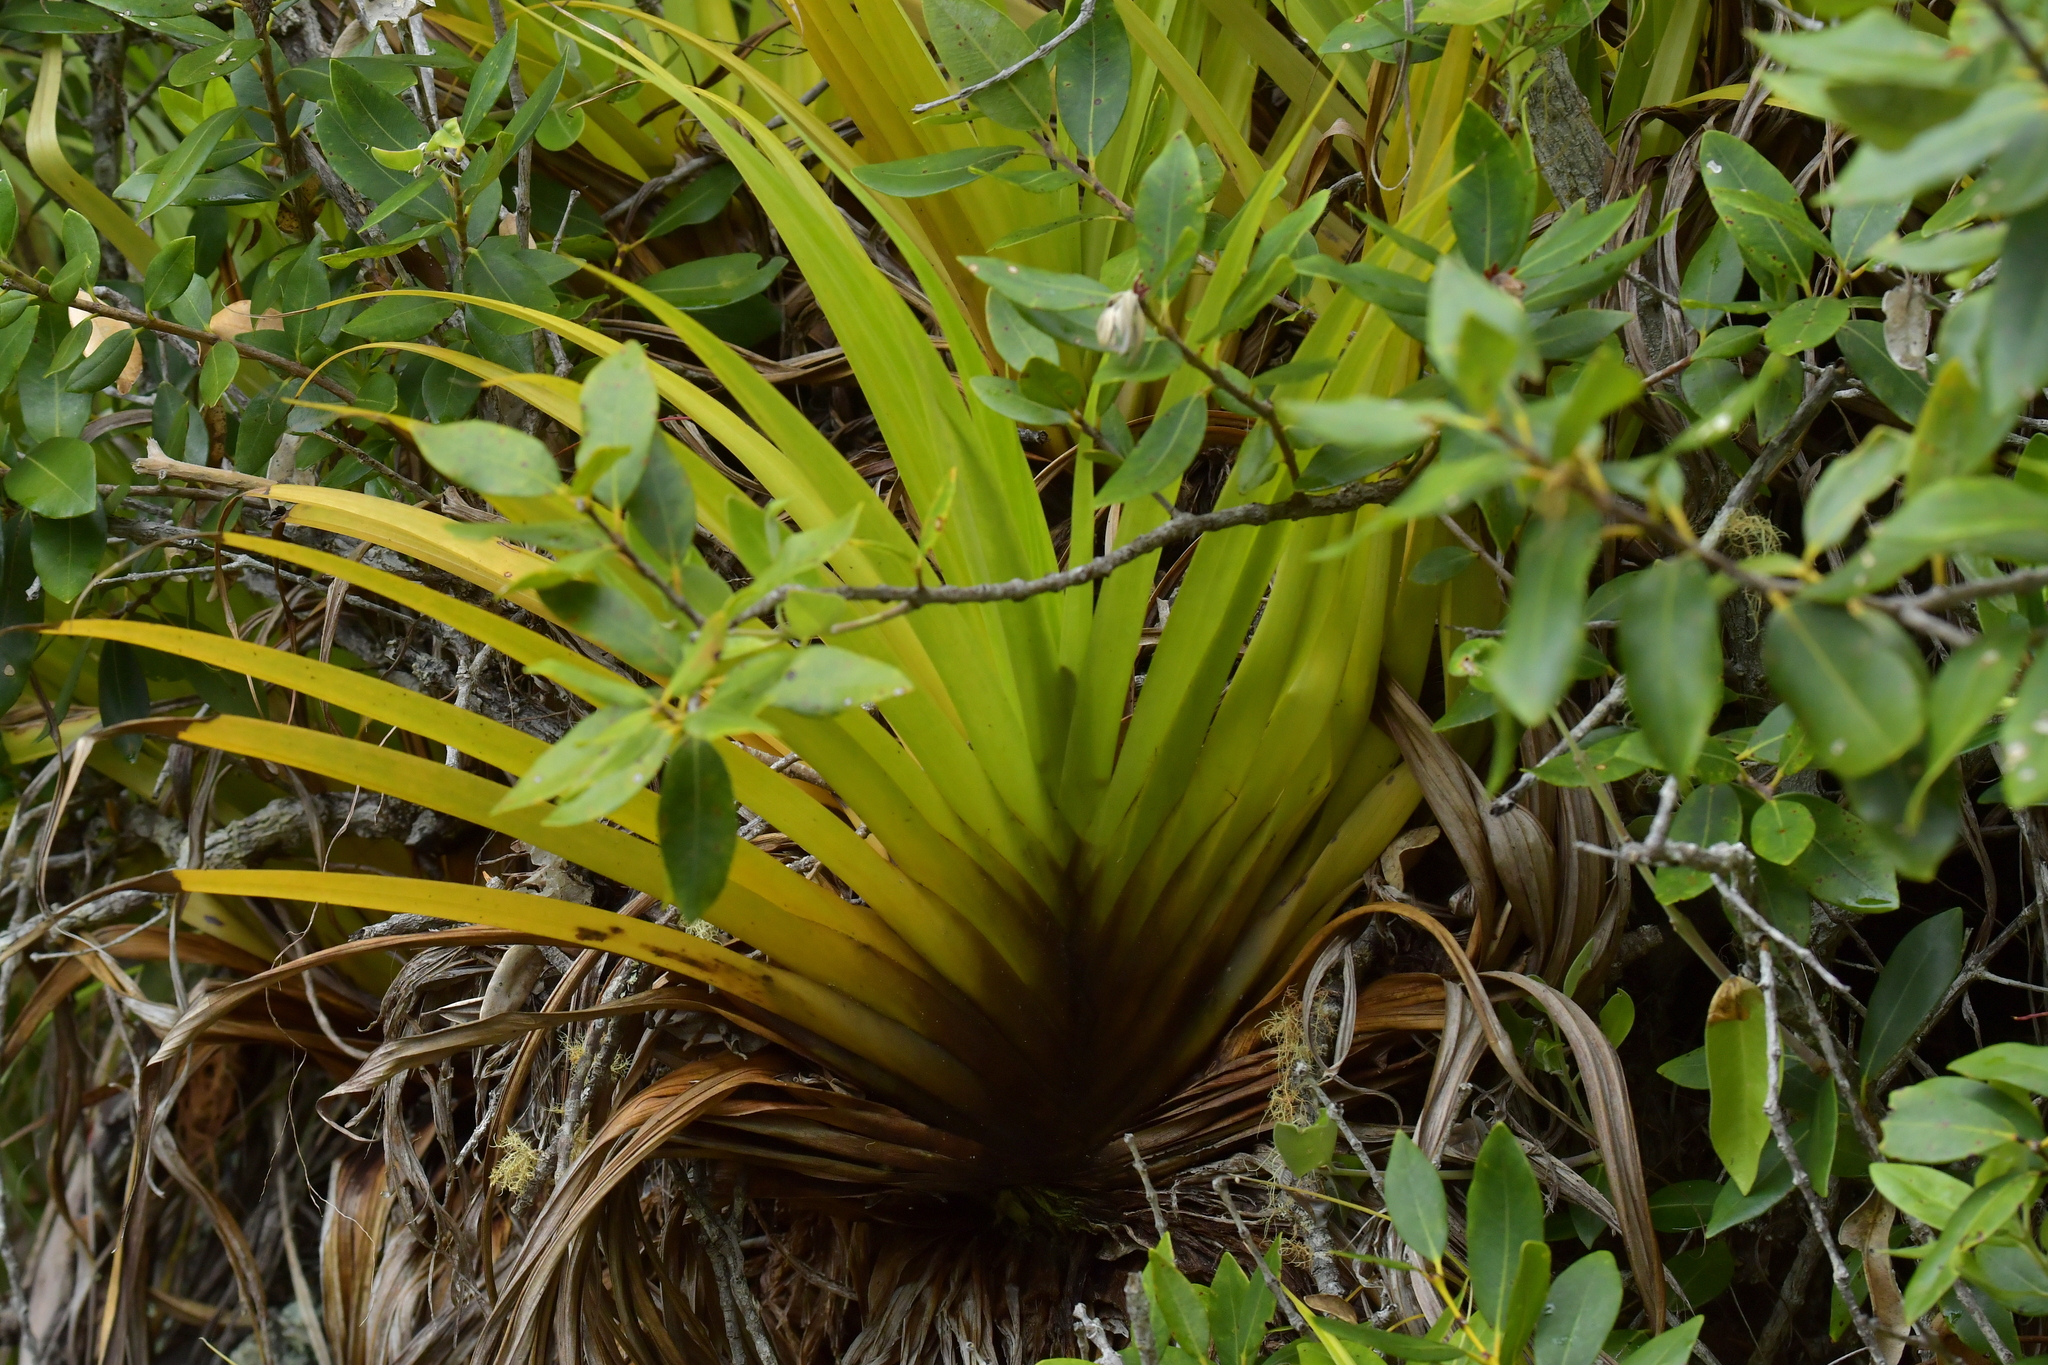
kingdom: Plantae
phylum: Tracheophyta
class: Liliopsida
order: Asparagales
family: Asteliaceae
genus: Astelia
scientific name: Astelia hastata
